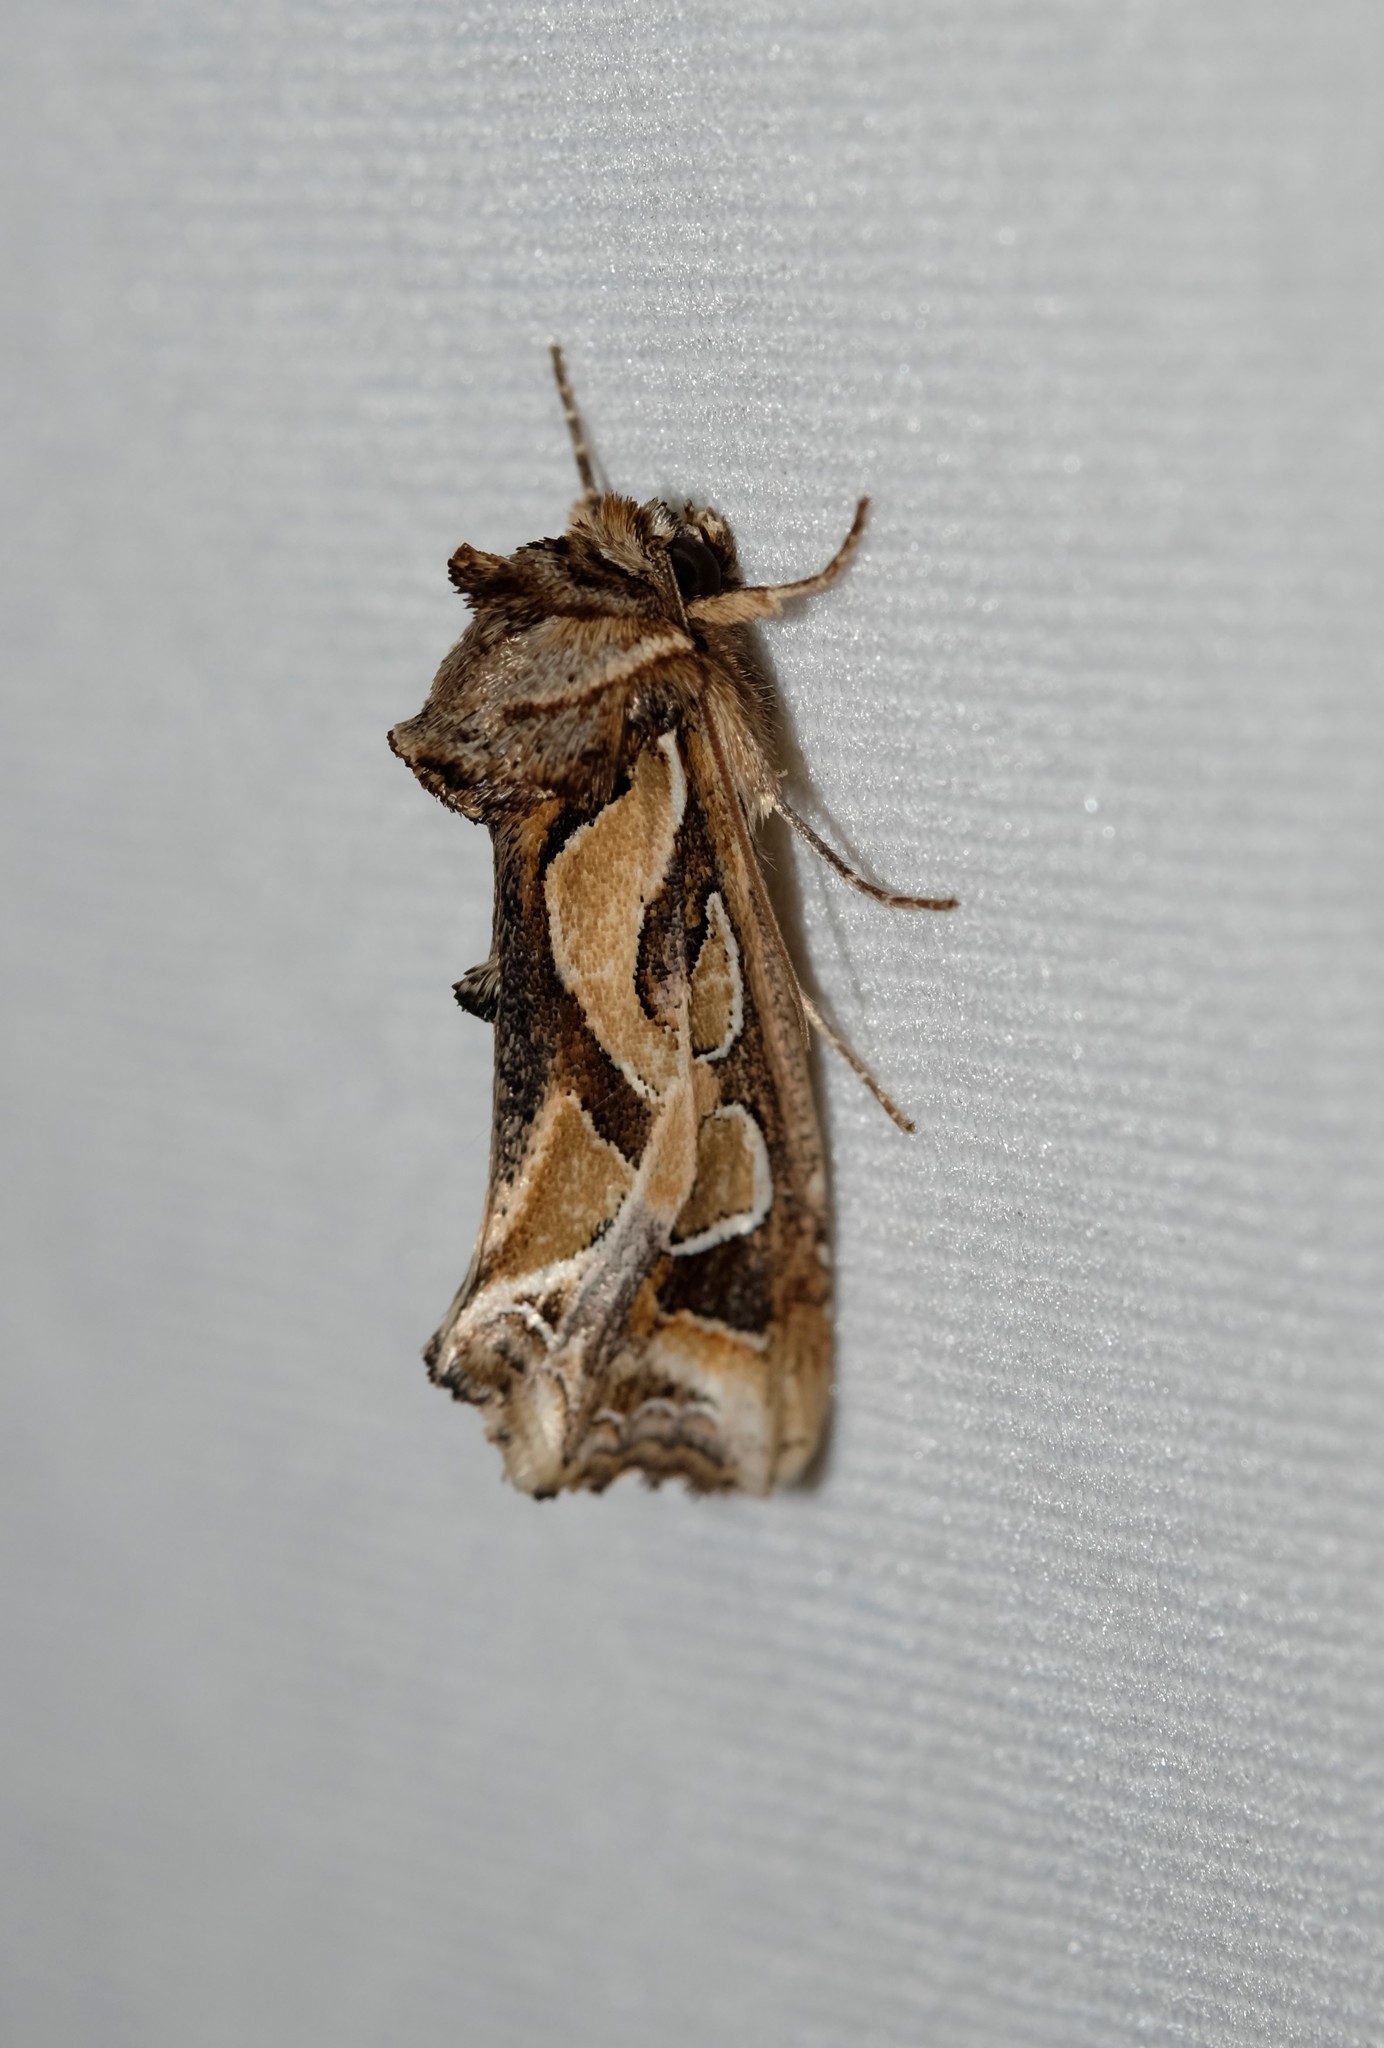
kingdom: Animalia
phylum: Arthropoda
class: Insecta
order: Lepidoptera
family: Noctuidae
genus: Cosmodes
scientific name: Cosmodes elegans
